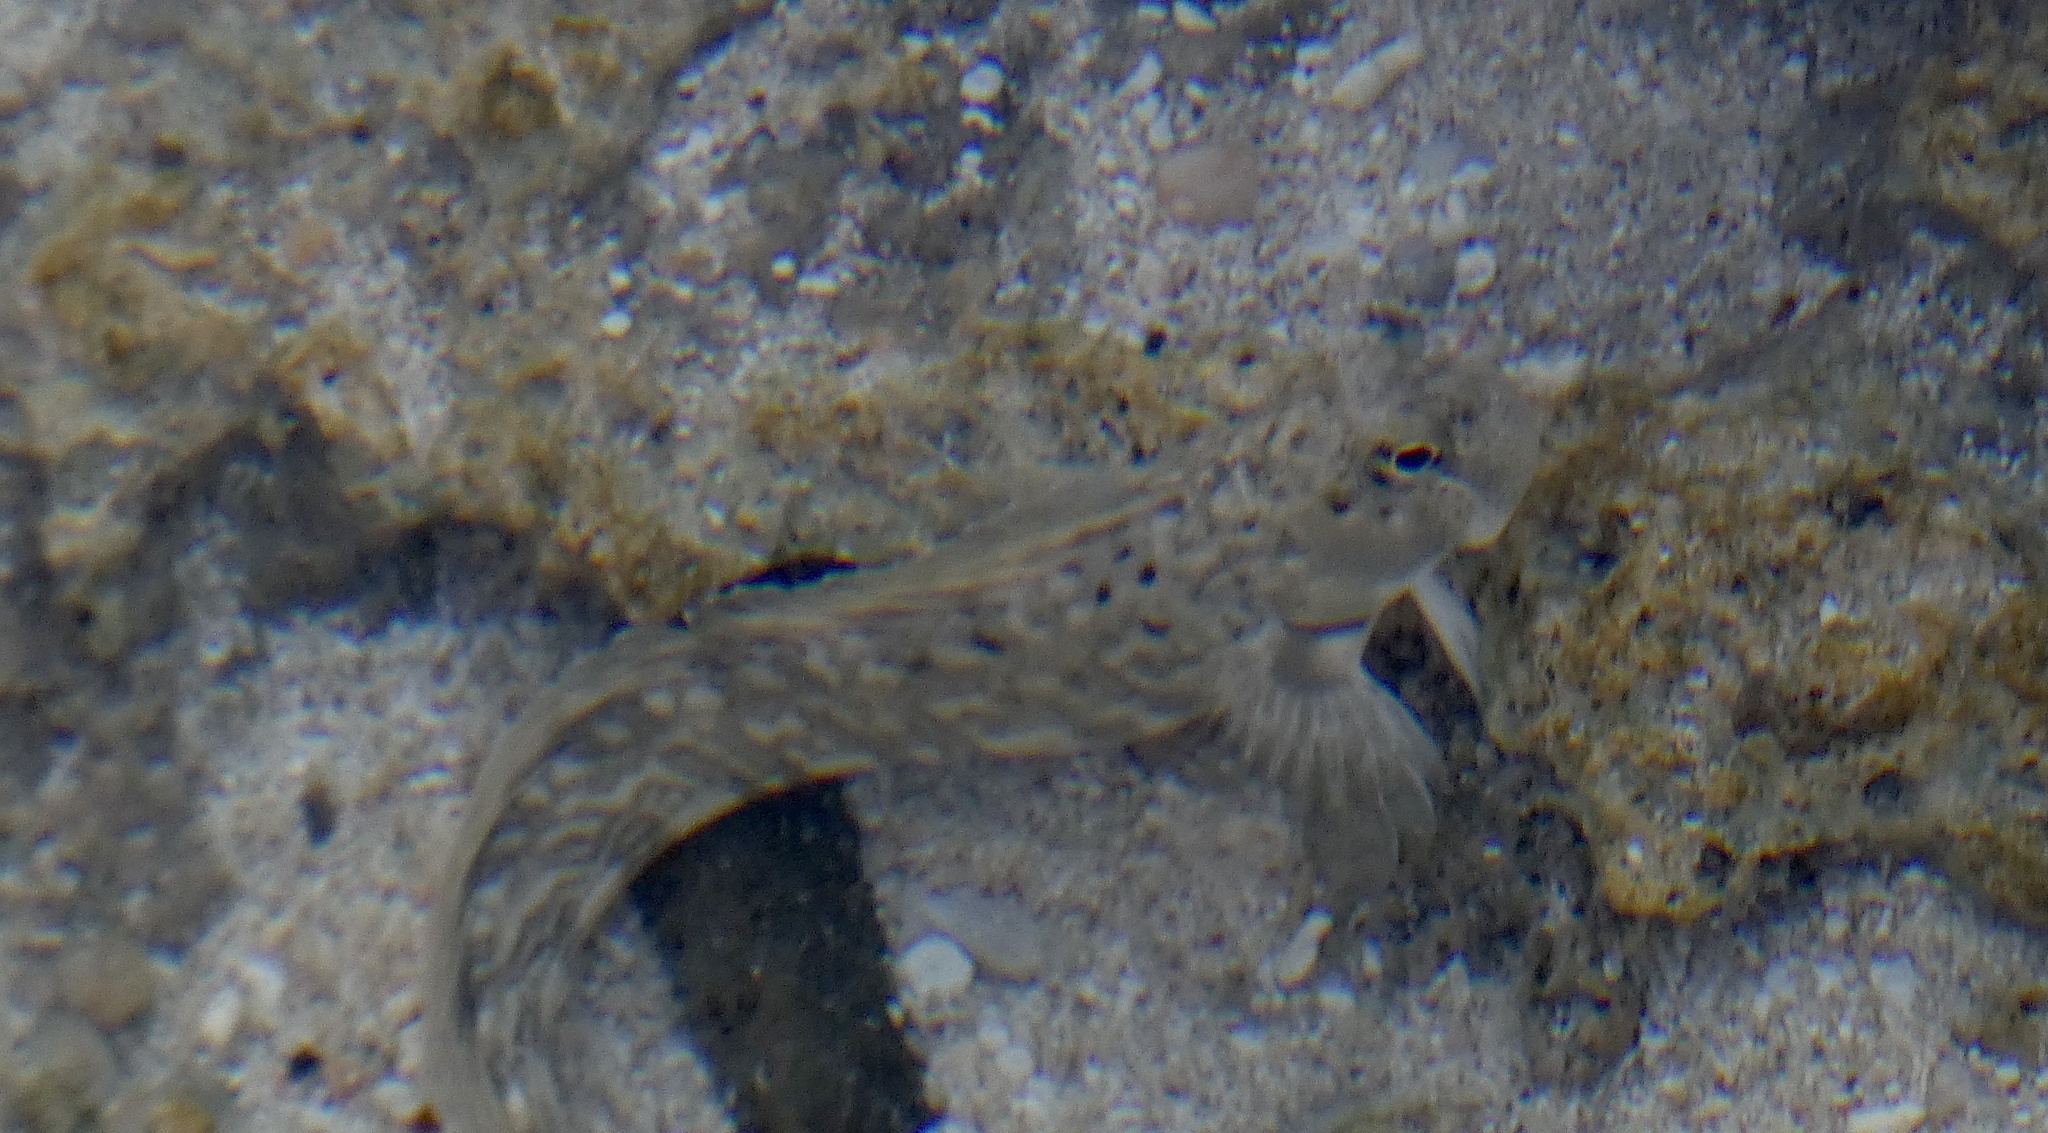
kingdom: Animalia
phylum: Chordata
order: Perciformes
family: Blenniidae
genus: Istiblennius
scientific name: Istiblennius rivulatus
